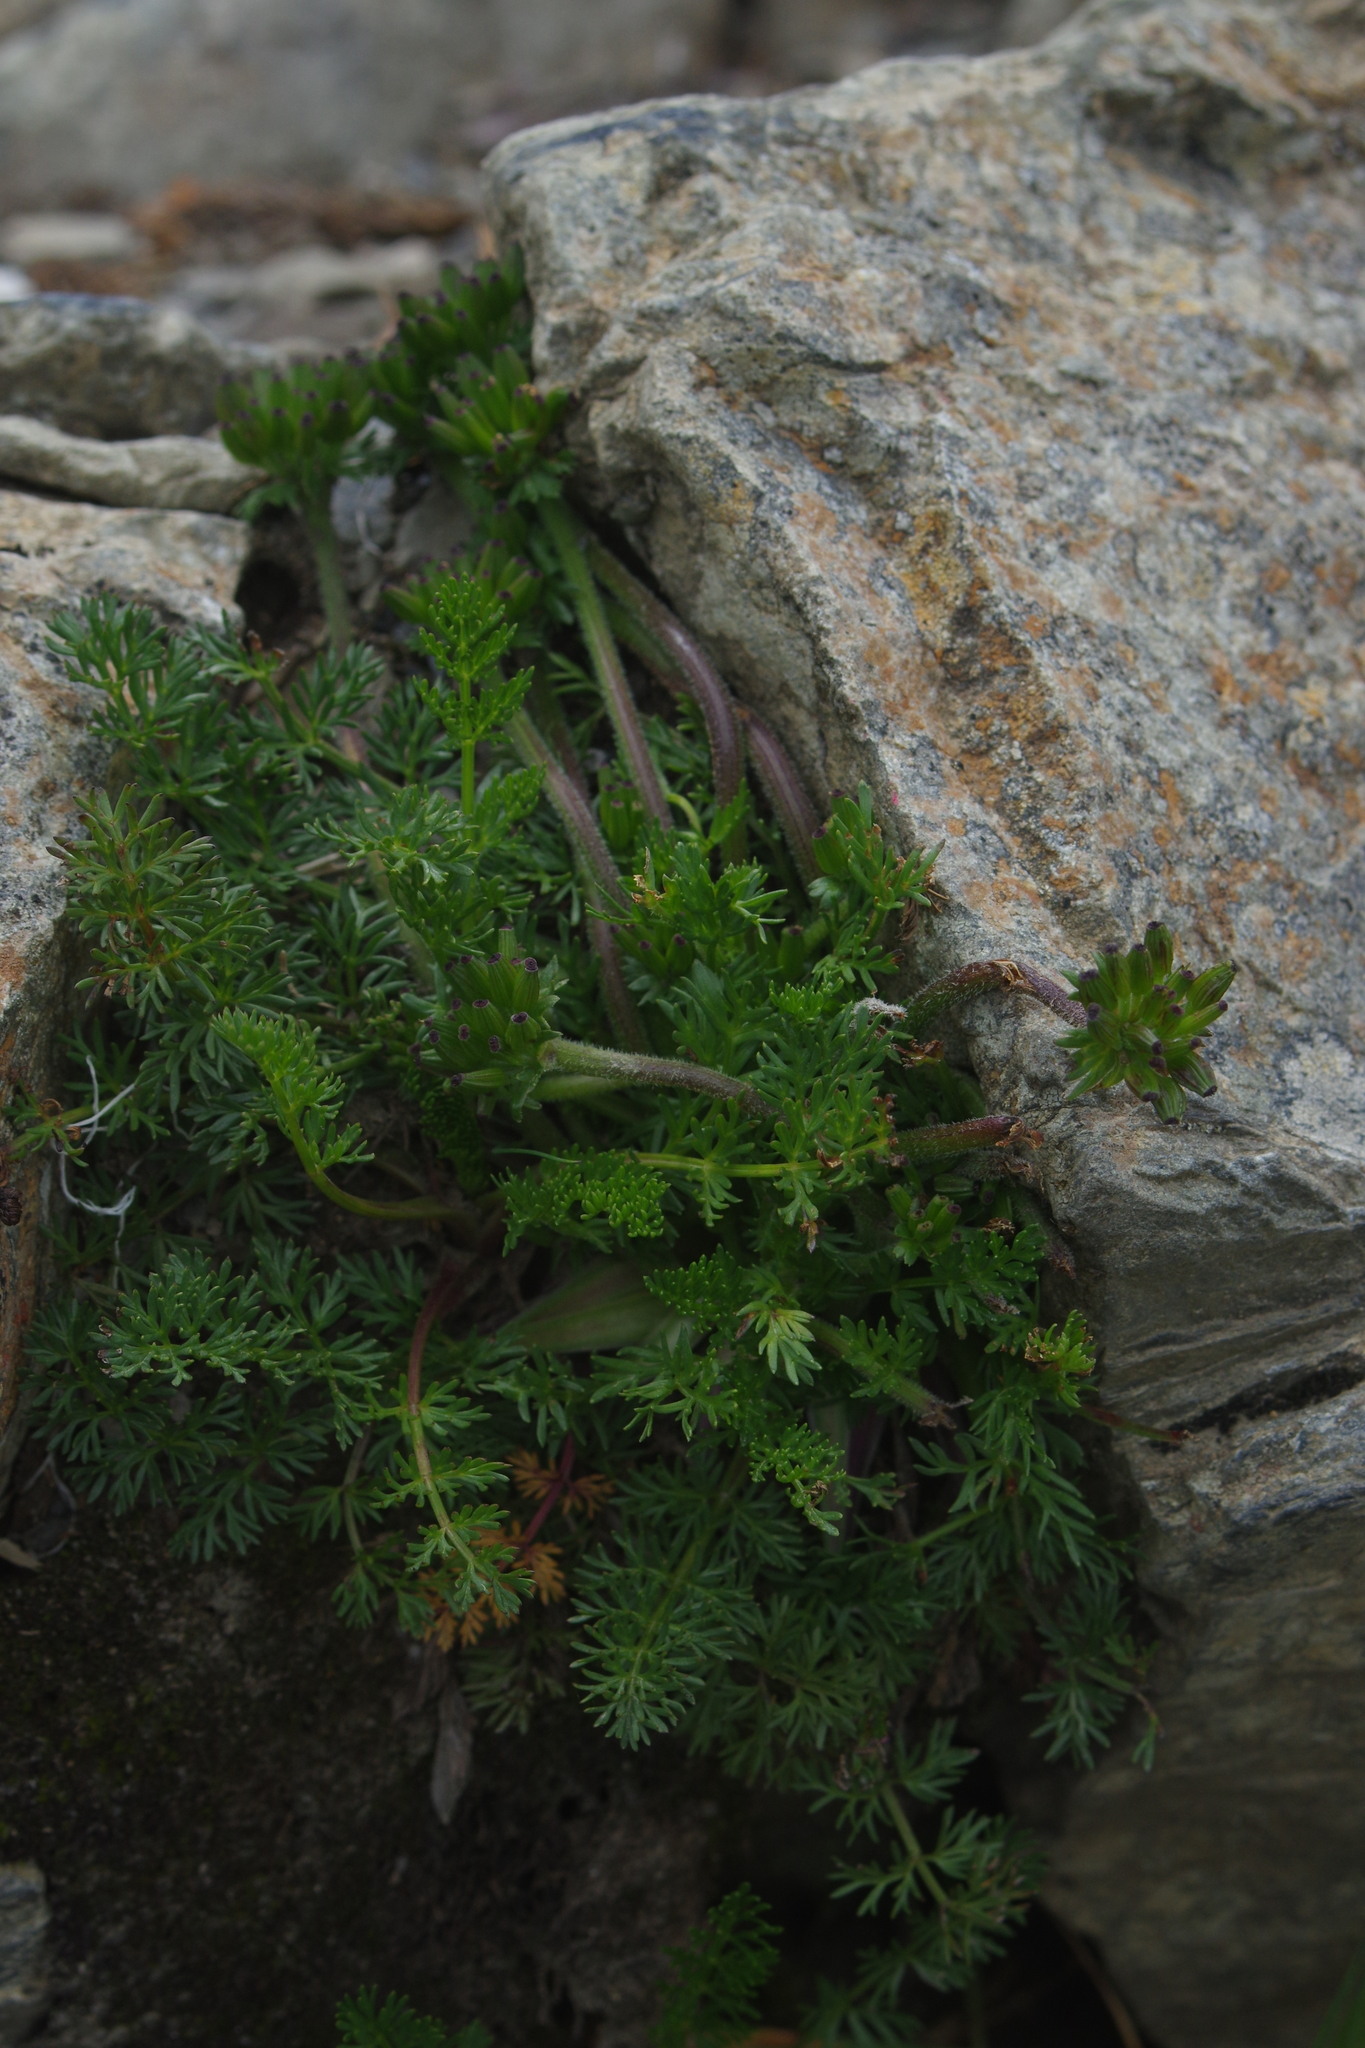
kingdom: Plantae
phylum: Tracheophyta
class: Magnoliopsida
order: Apiales
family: Apiaceae
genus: Chaerophyllum
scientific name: Chaerophyllum nanhuense
